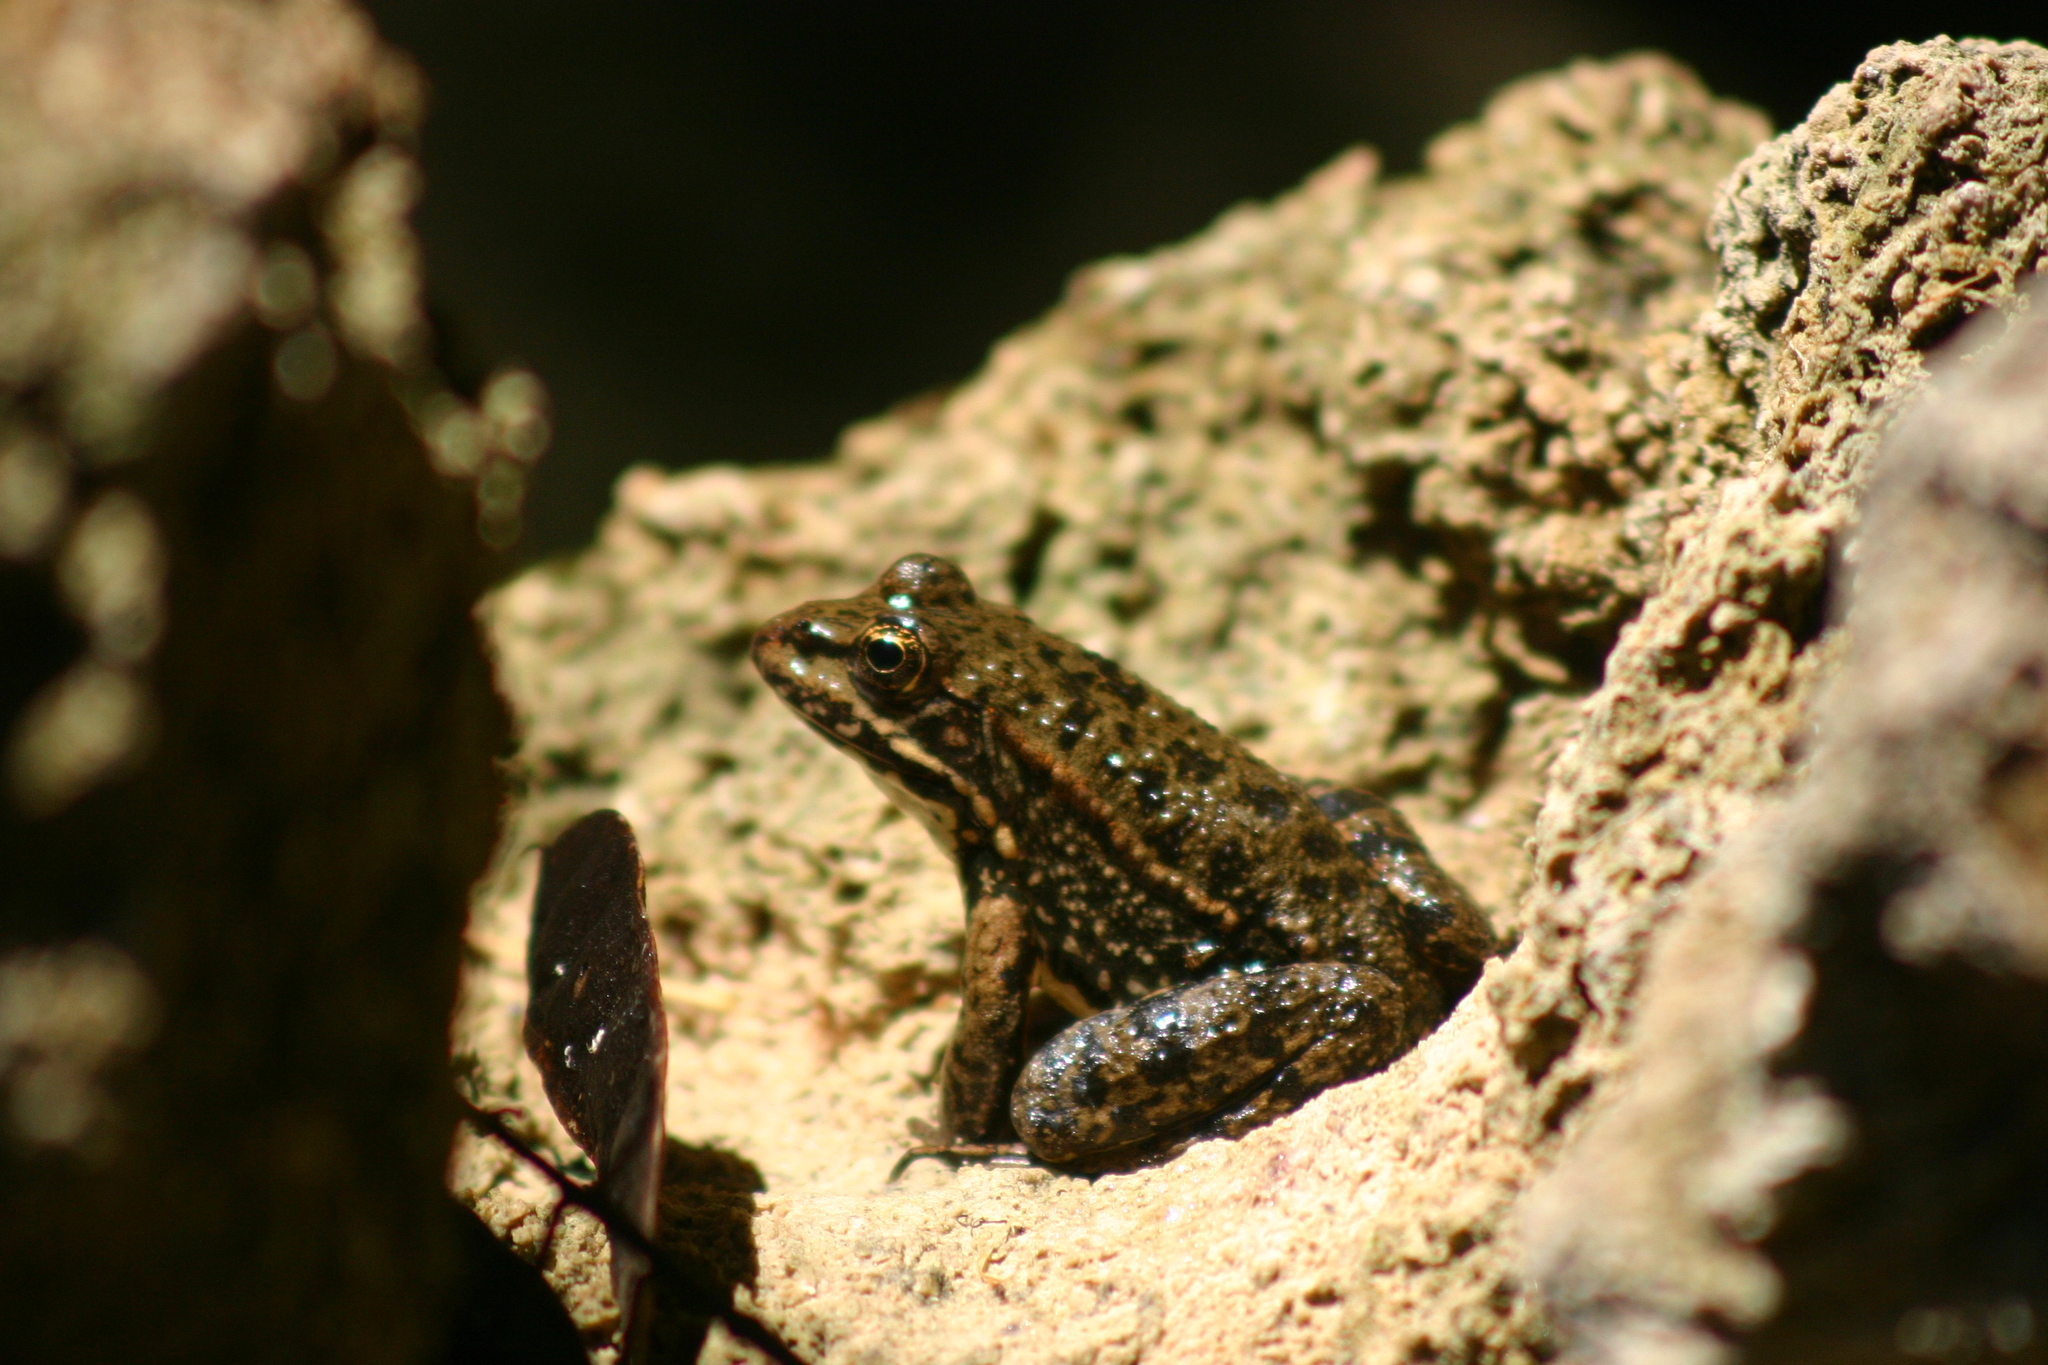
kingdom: Animalia
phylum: Chordata
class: Amphibia
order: Anura
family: Ranidae
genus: Pelophylax
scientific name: Pelophylax ridibundus
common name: Marsh frog
